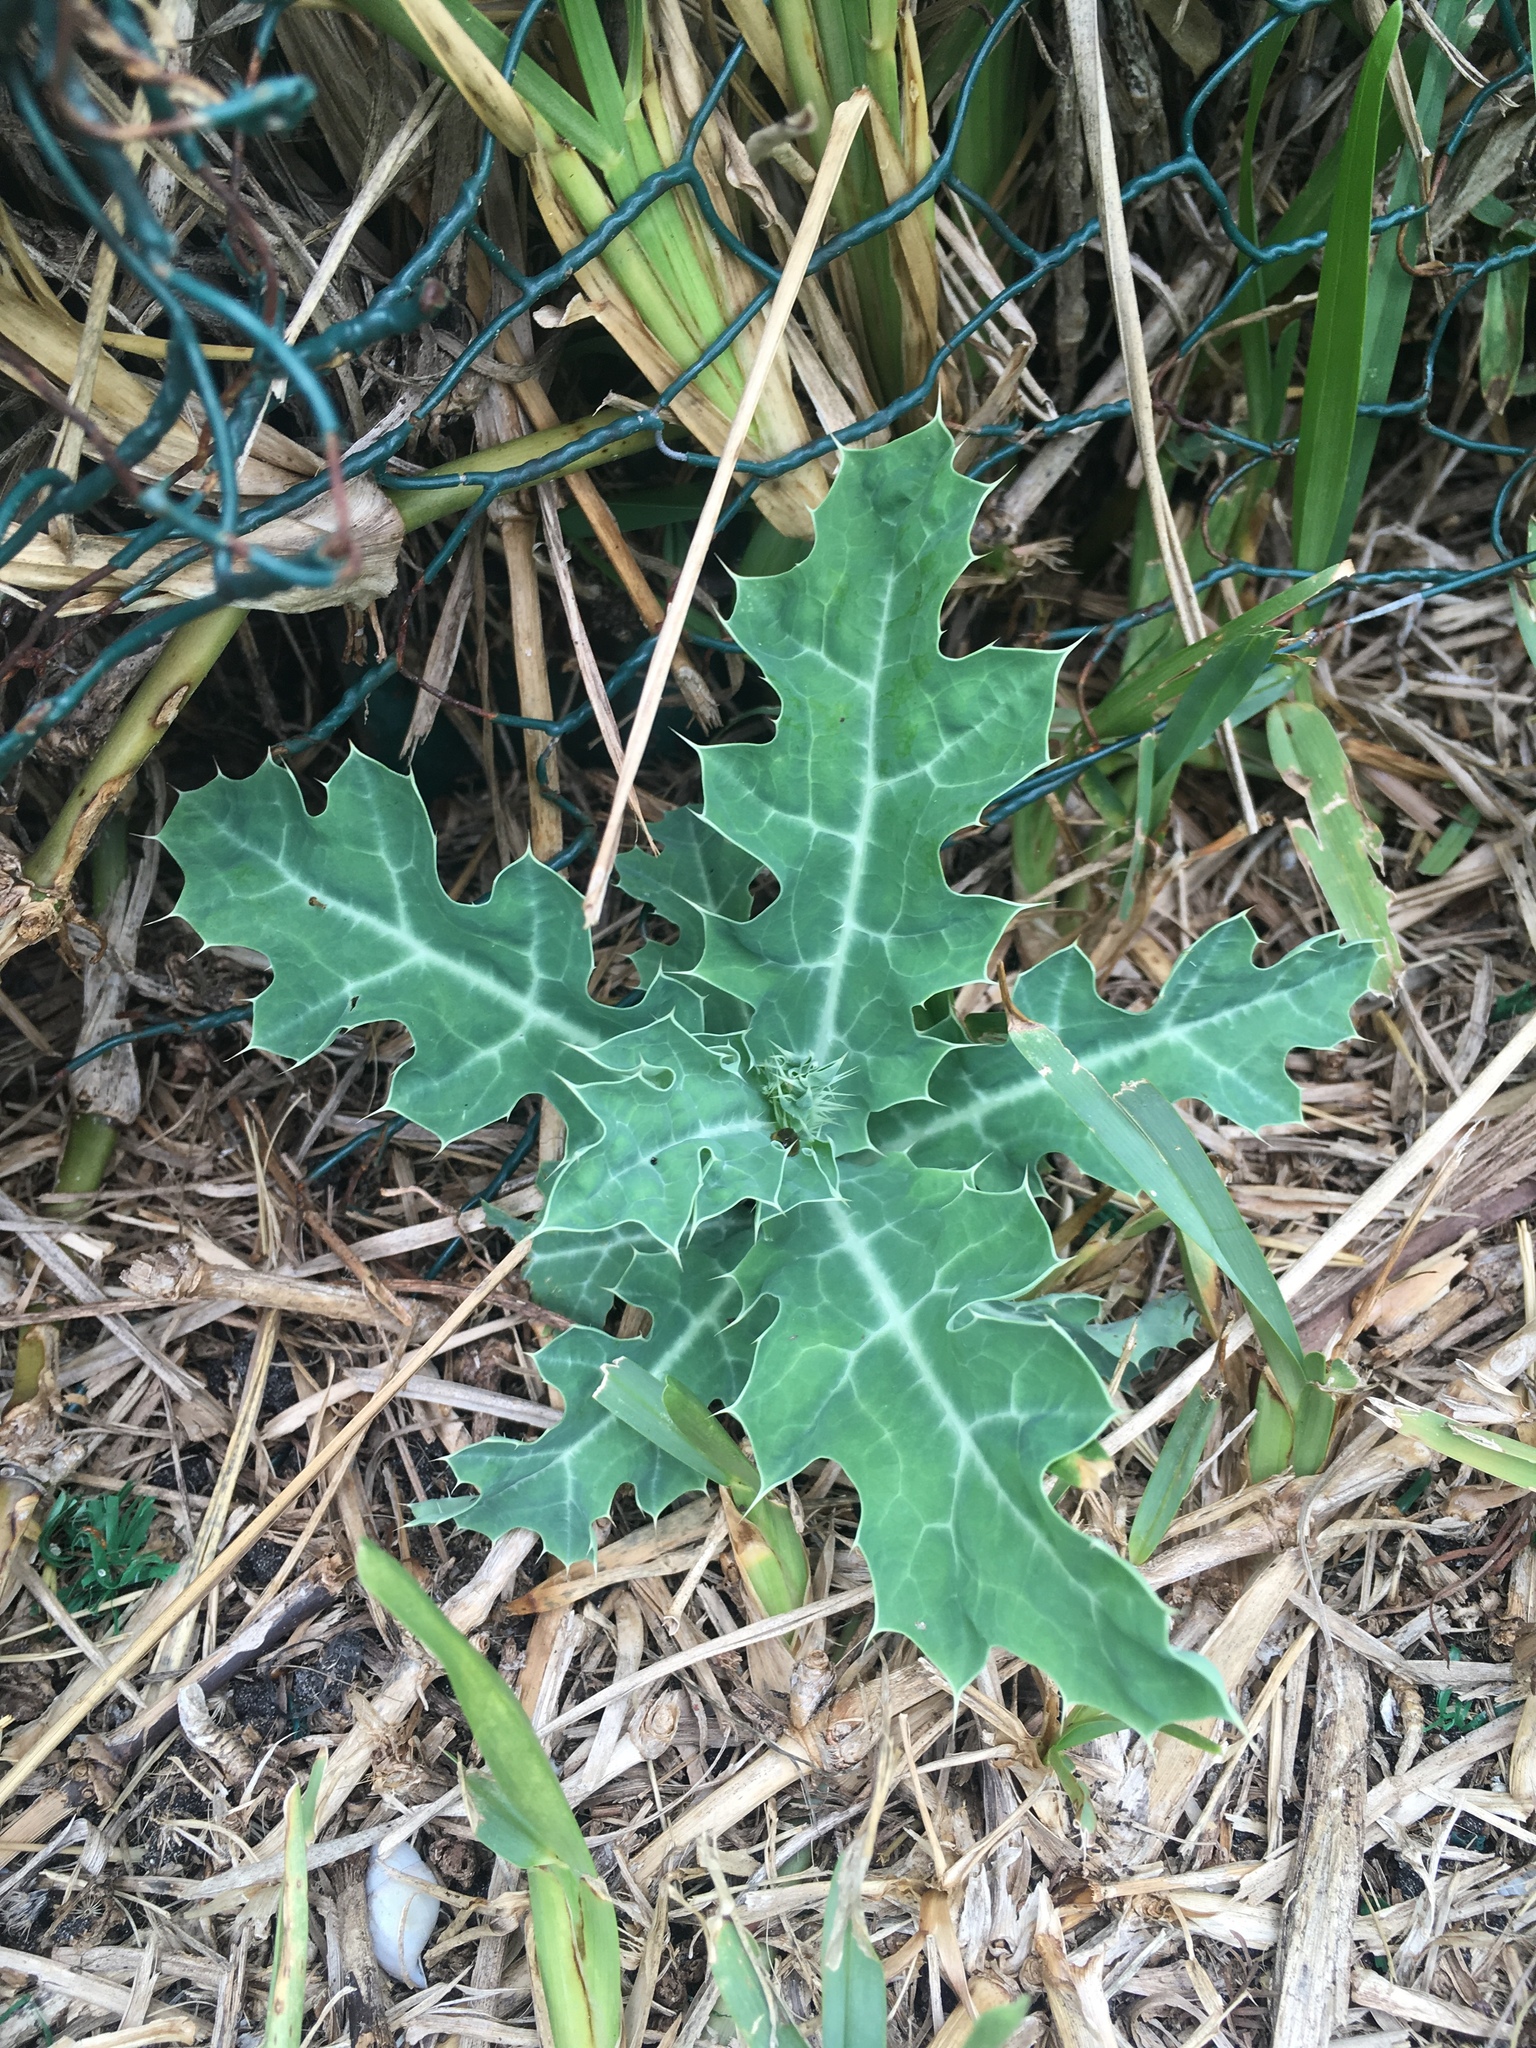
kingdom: Plantae
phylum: Tracheophyta
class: Magnoliopsida
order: Ranunculales
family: Papaveraceae
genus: Argemone
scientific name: Argemone mexicana
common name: Mexican poppy
